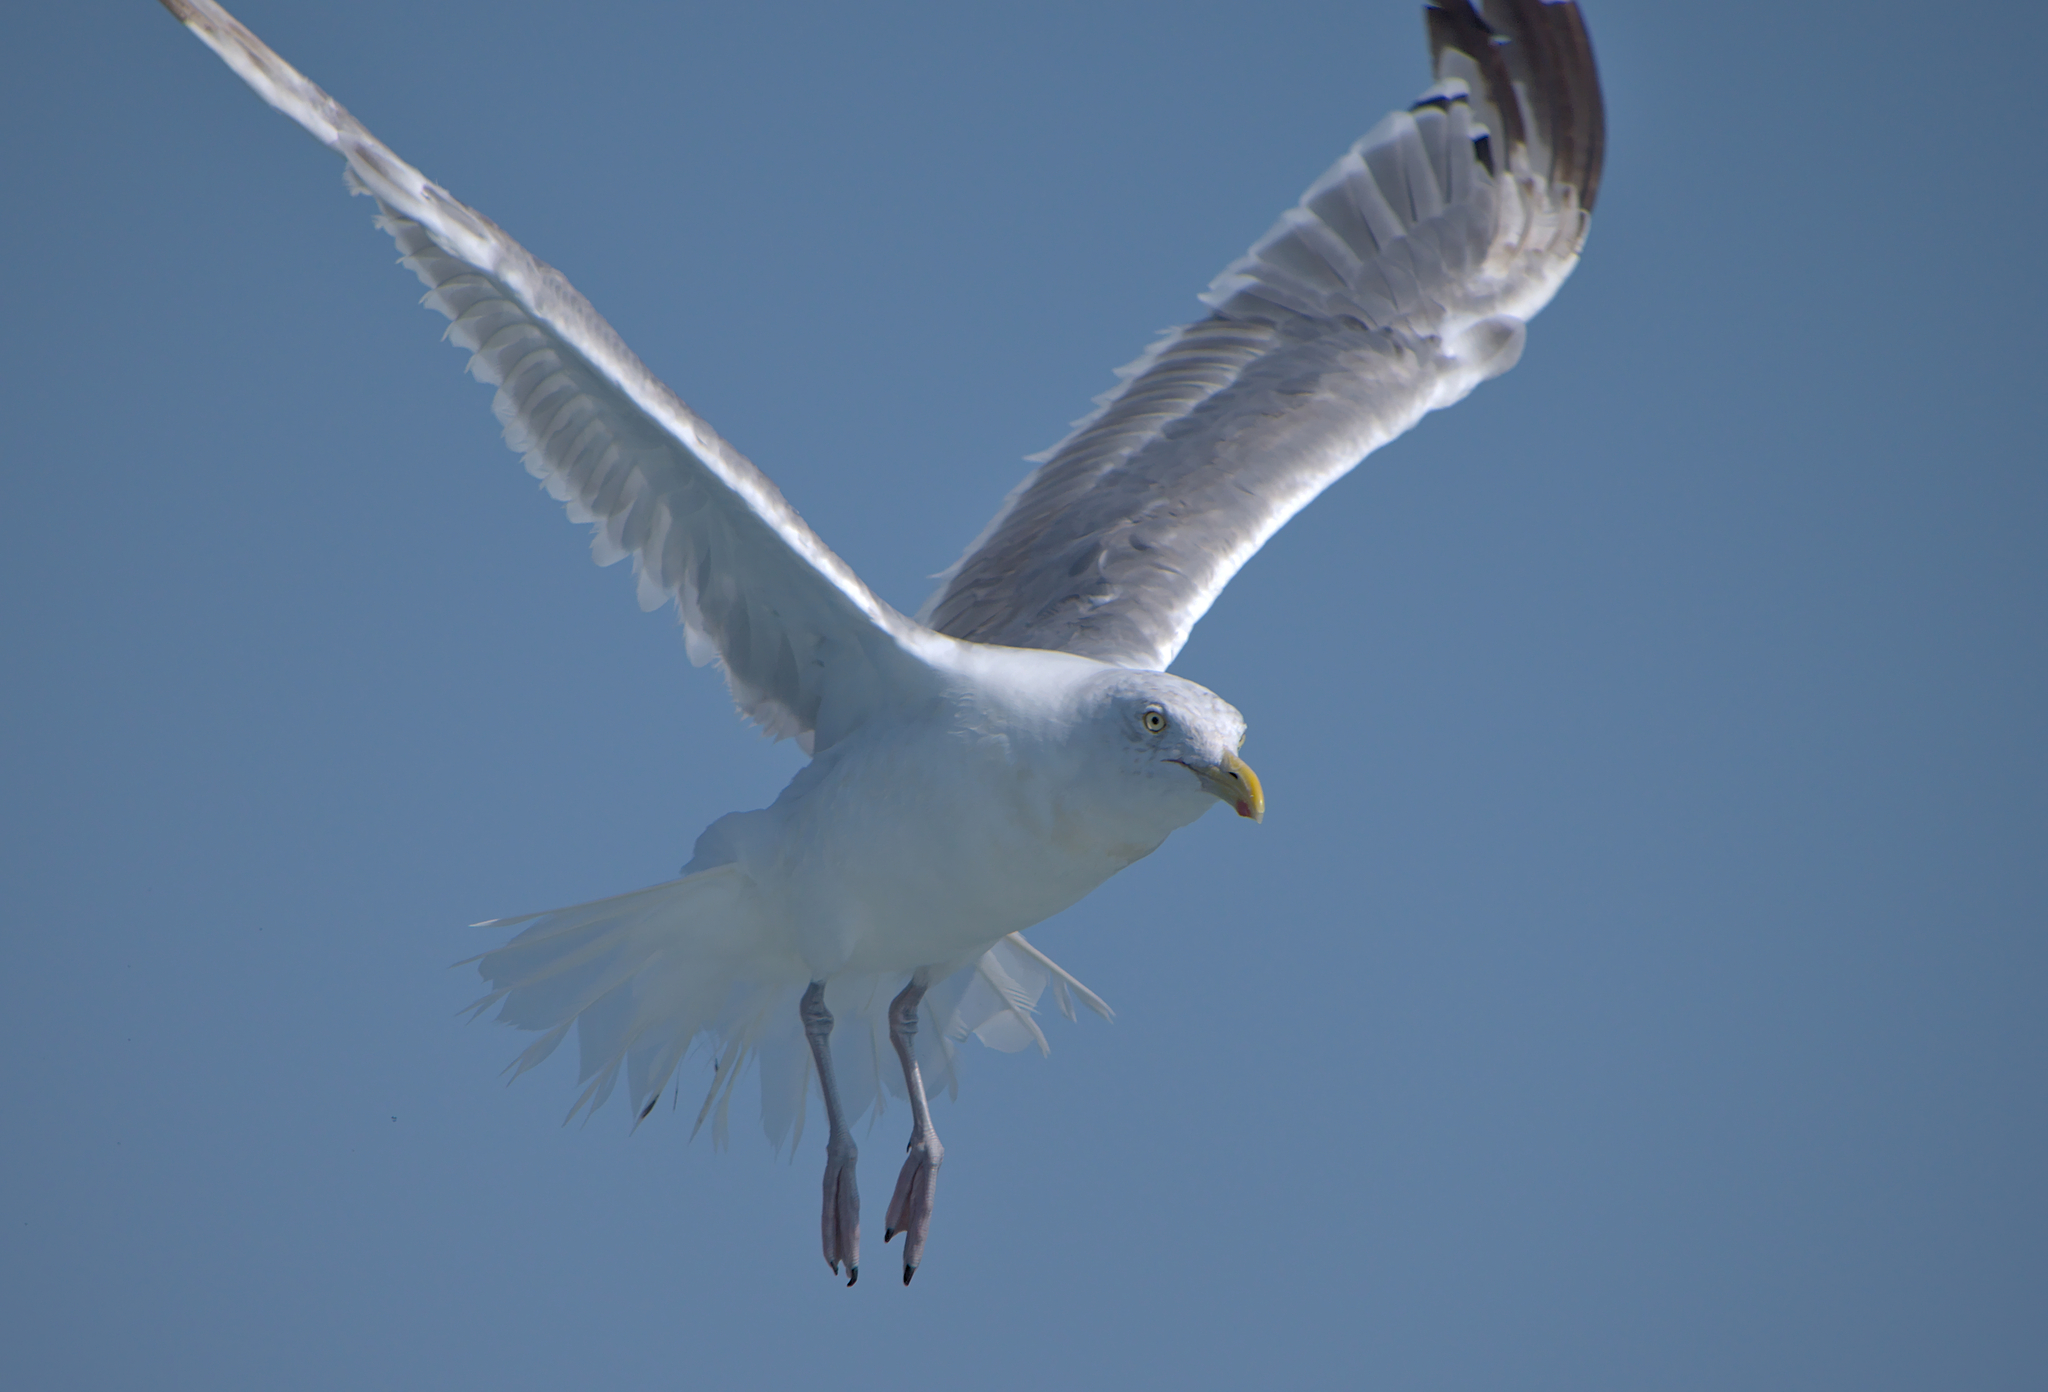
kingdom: Animalia
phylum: Chordata
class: Aves
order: Charadriiformes
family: Laridae
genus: Larus
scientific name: Larus argentatus
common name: Herring gull
